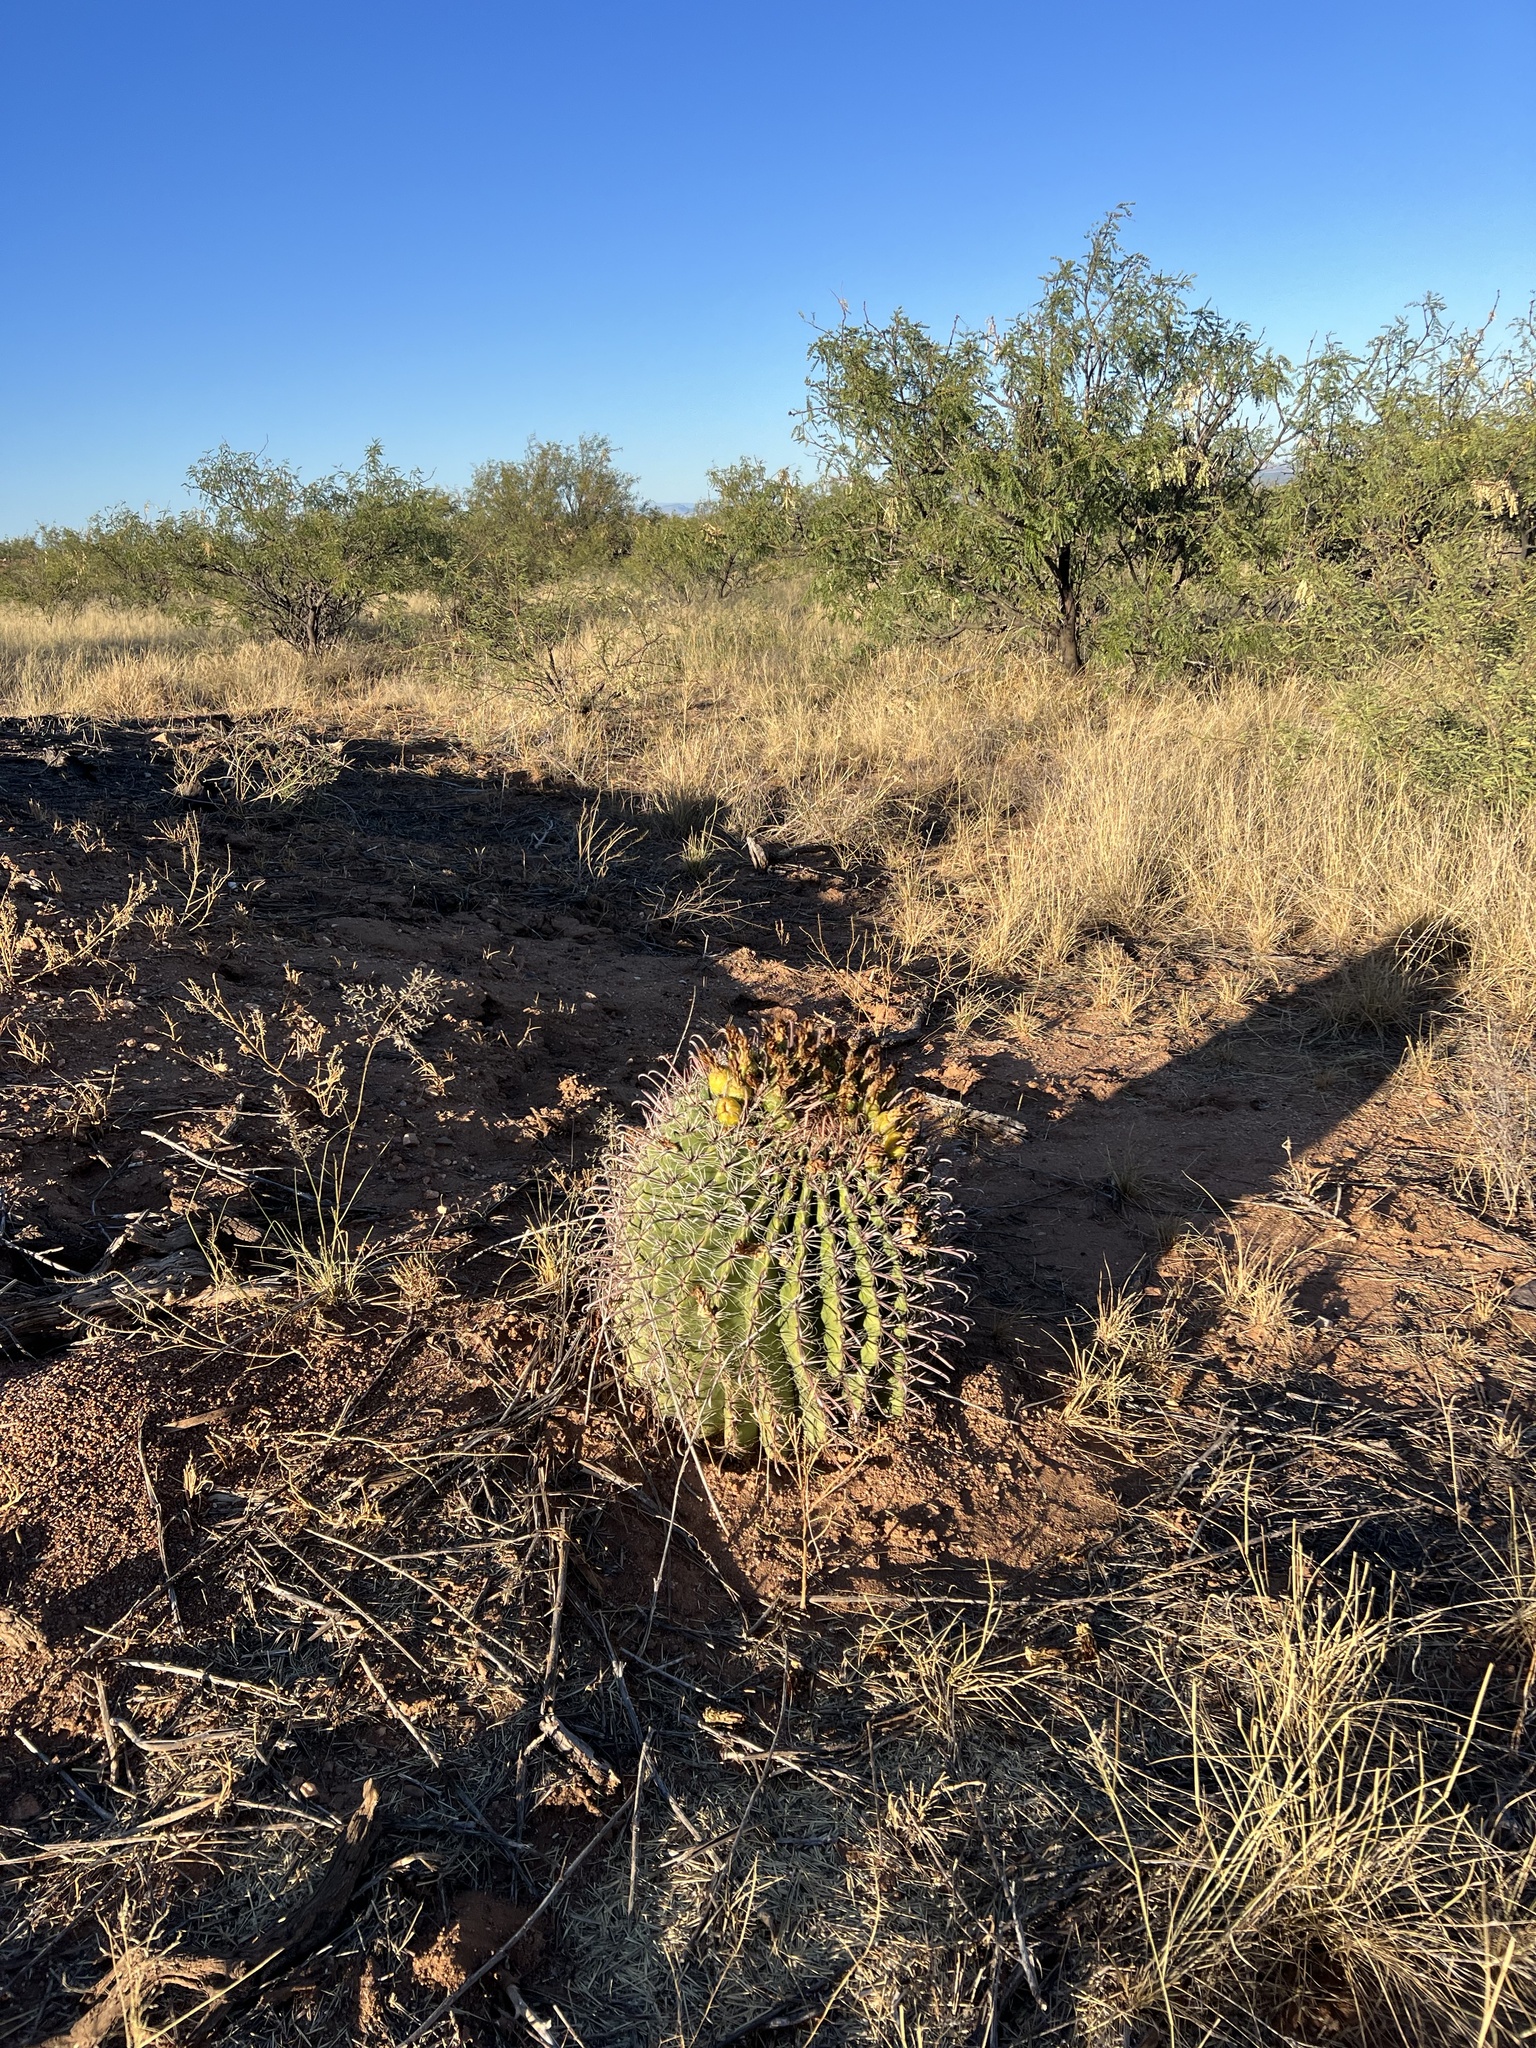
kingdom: Plantae
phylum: Tracheophyta
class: Magnoliopsida
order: Caryophyllales
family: Cactaceae
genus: Ferocactus
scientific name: Ferocactus wislizeni
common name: Candy barrel cactus
